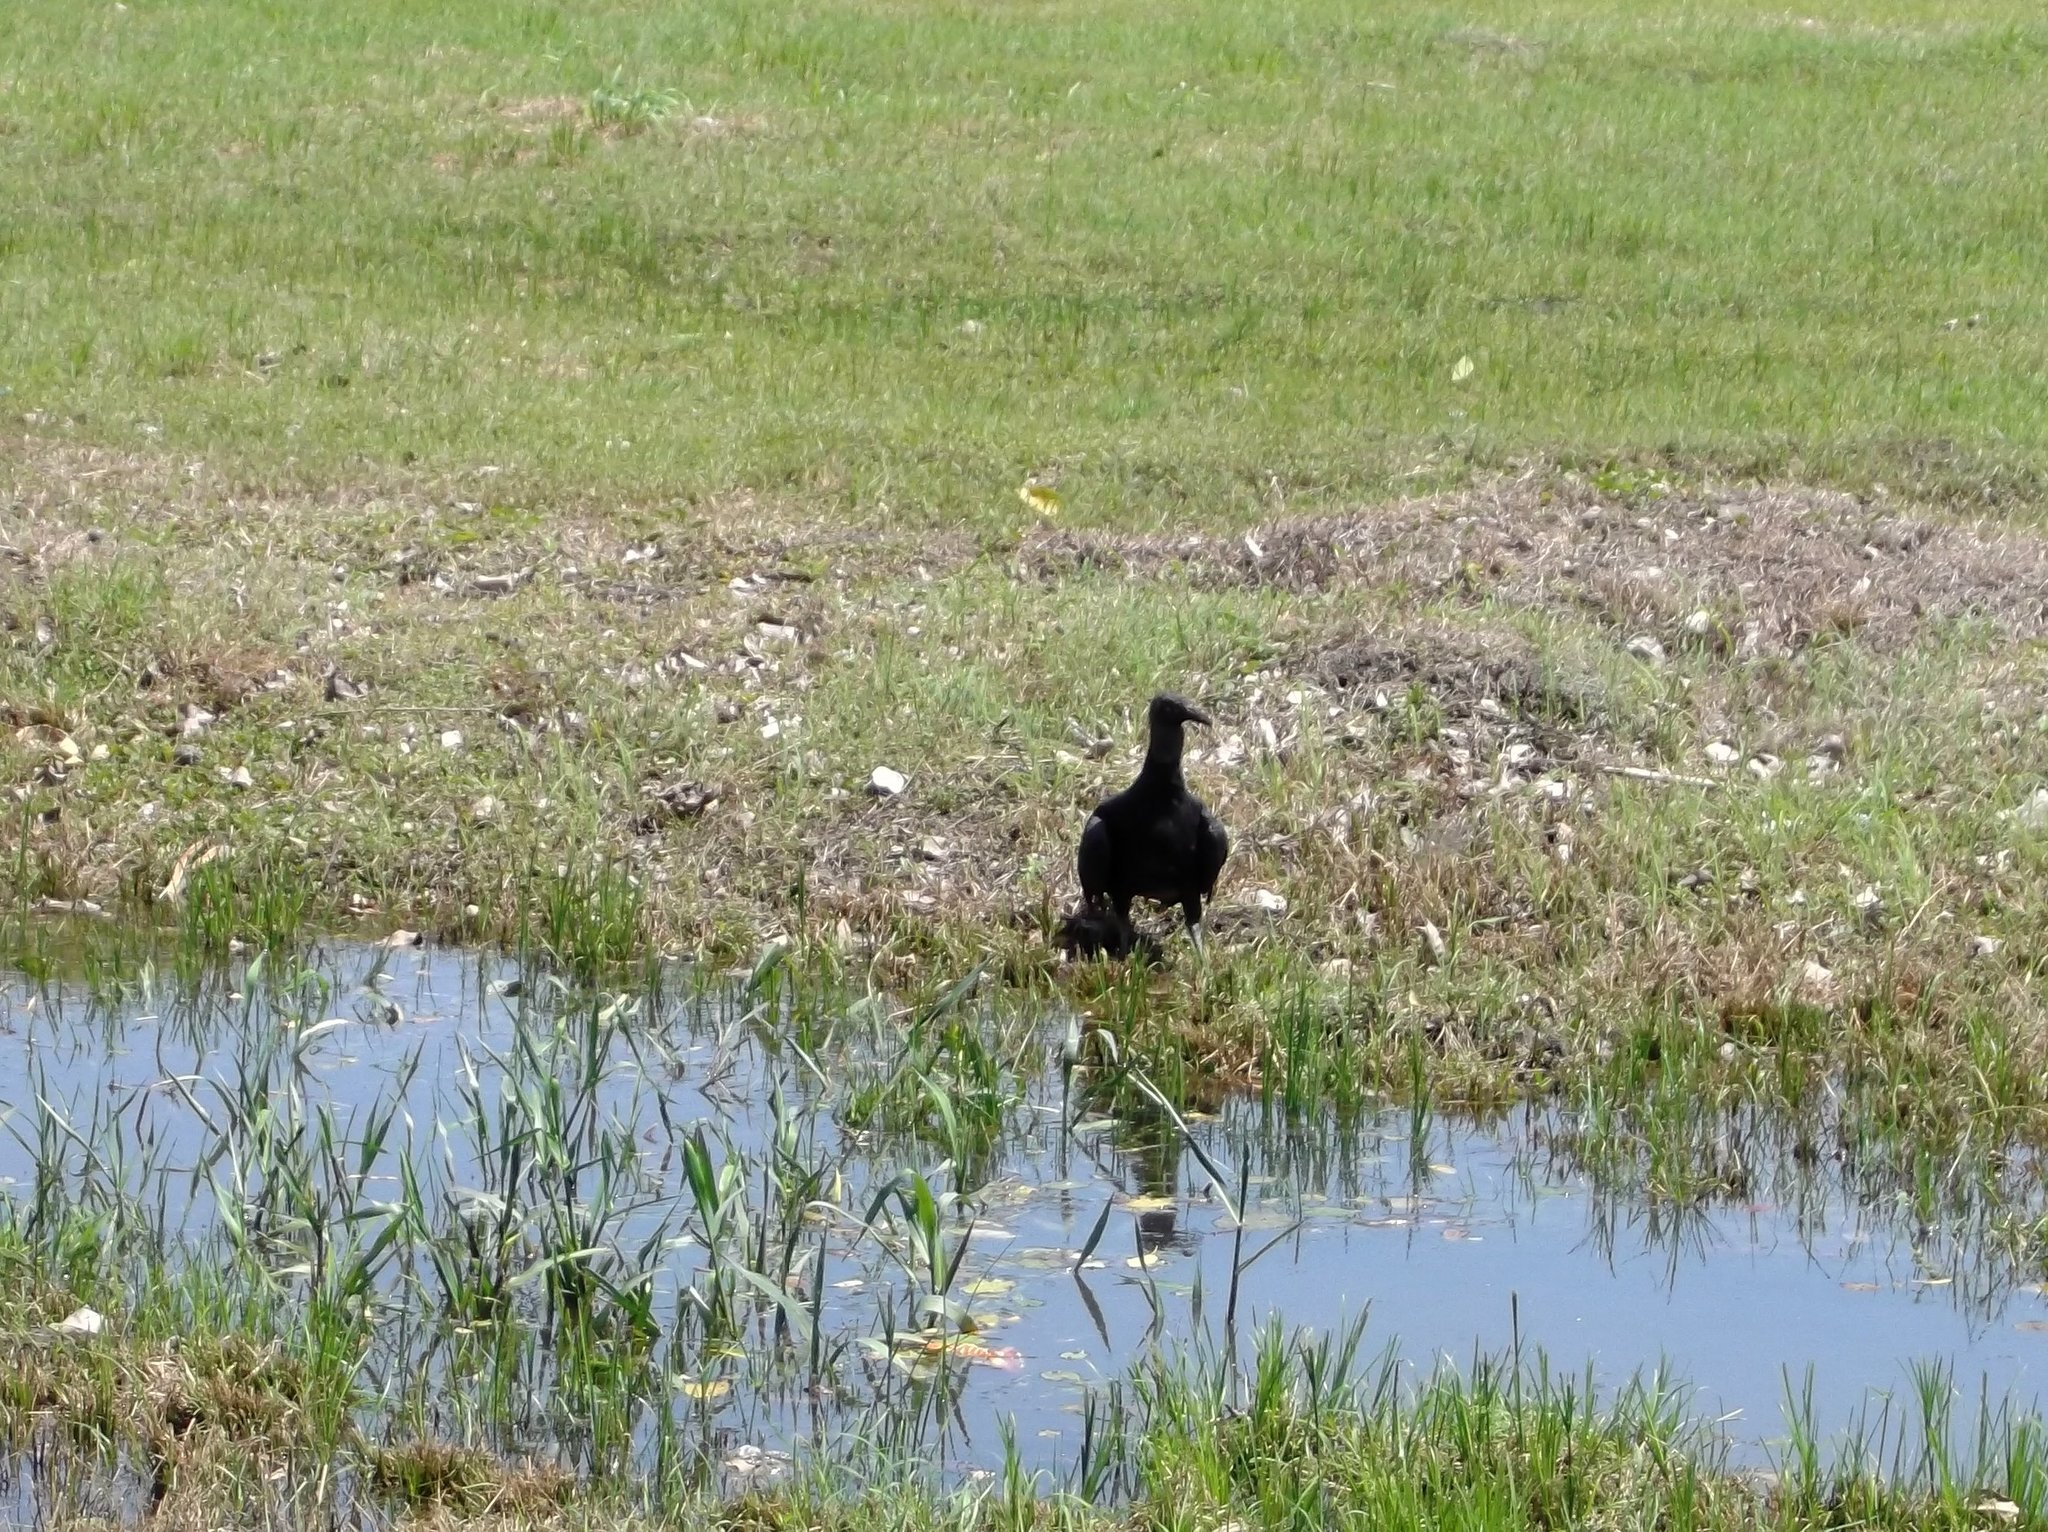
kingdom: Animalia
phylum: Chordata
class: Aves
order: Accipitriformes
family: Cathartidae
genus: Coragyps
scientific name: Coragyps atratus
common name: Black vulture
